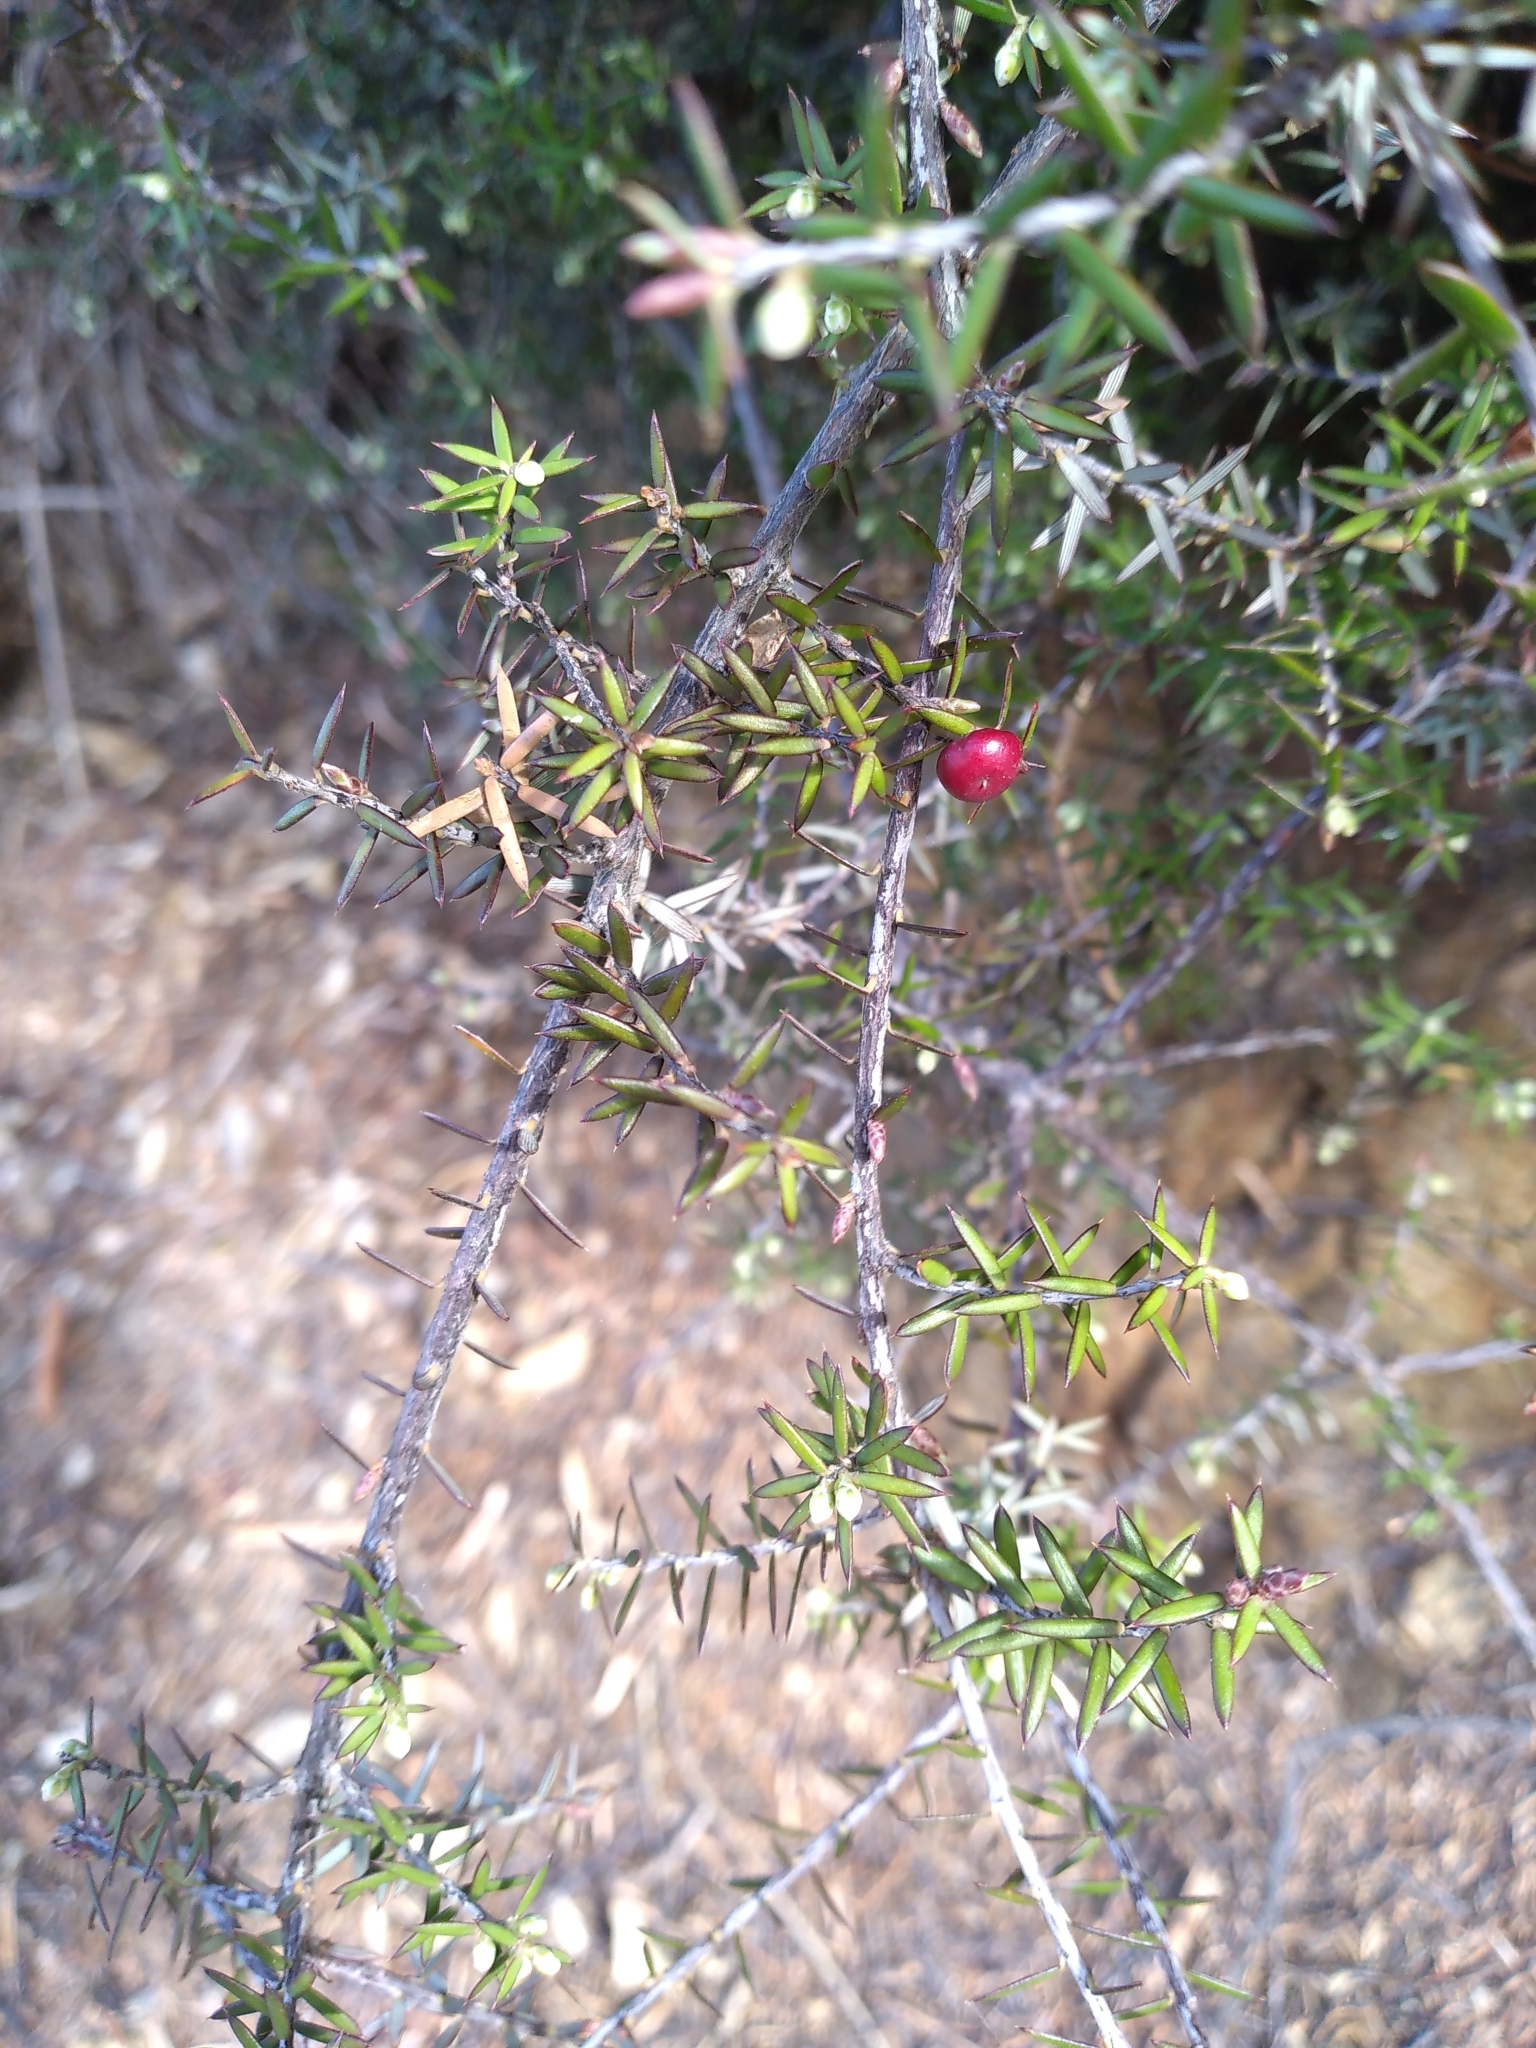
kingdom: Plantae
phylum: Tracheophyta
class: Magnoliopsida
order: Ericales
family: Ericaceae
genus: Leptecophylla
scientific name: Leptecophylla juniperina
